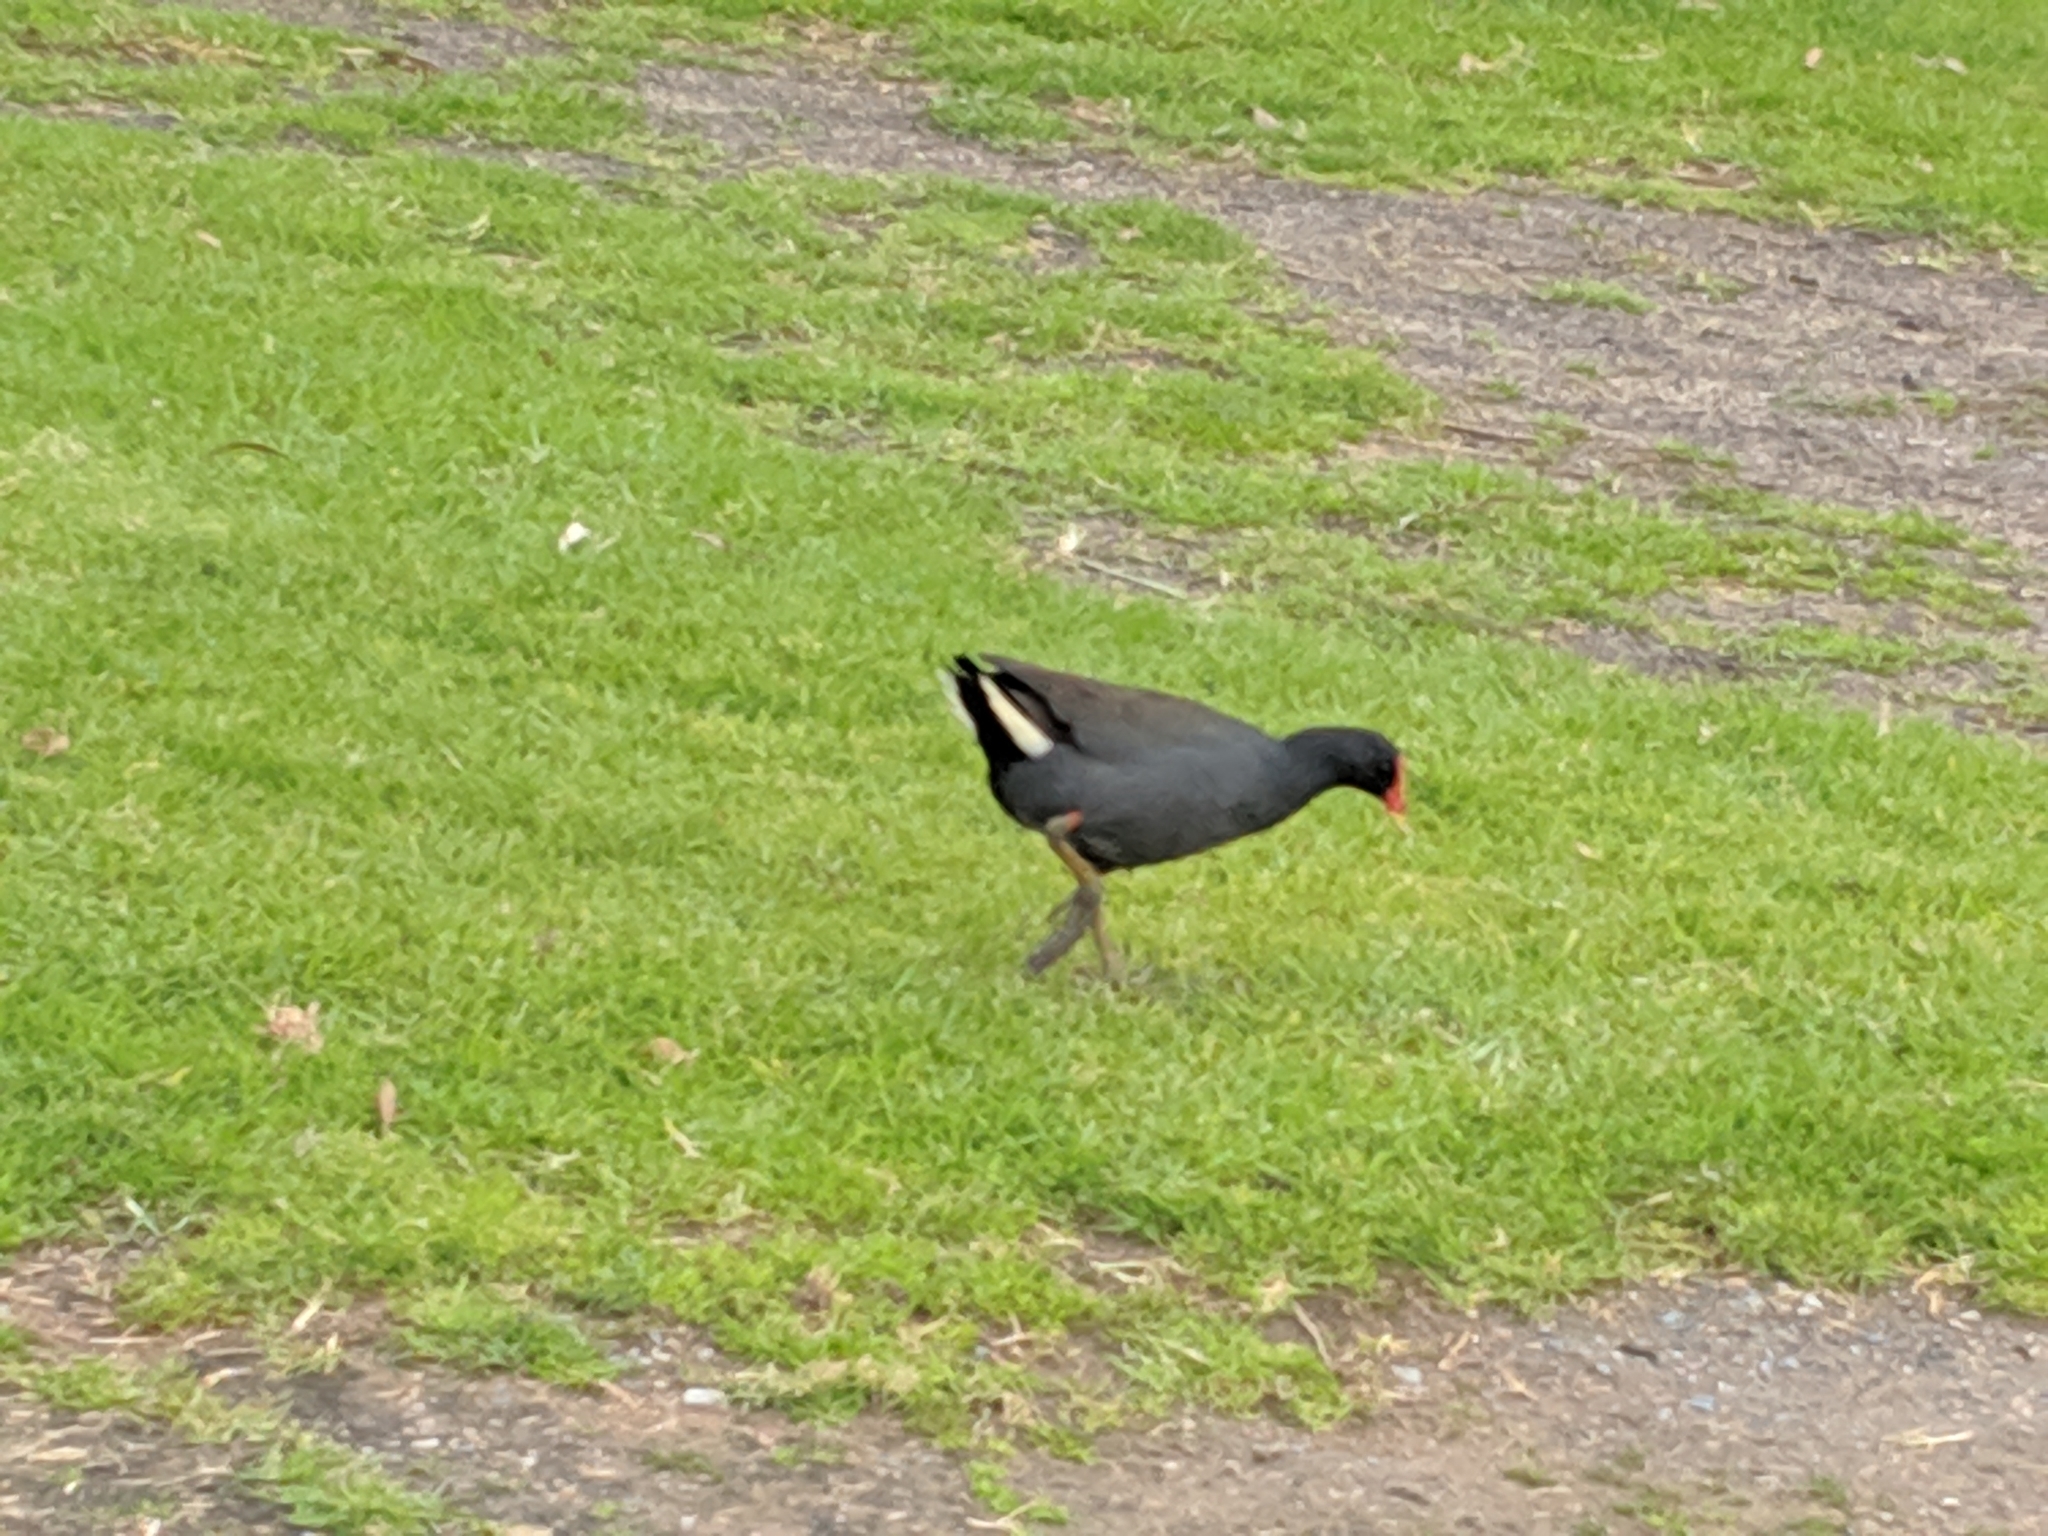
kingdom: Animalia
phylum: Chordata
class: Aves
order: Gruiformes
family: Rallidae
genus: Gallinula
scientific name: Gallinula tenebrosa
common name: Dusky moorhen
